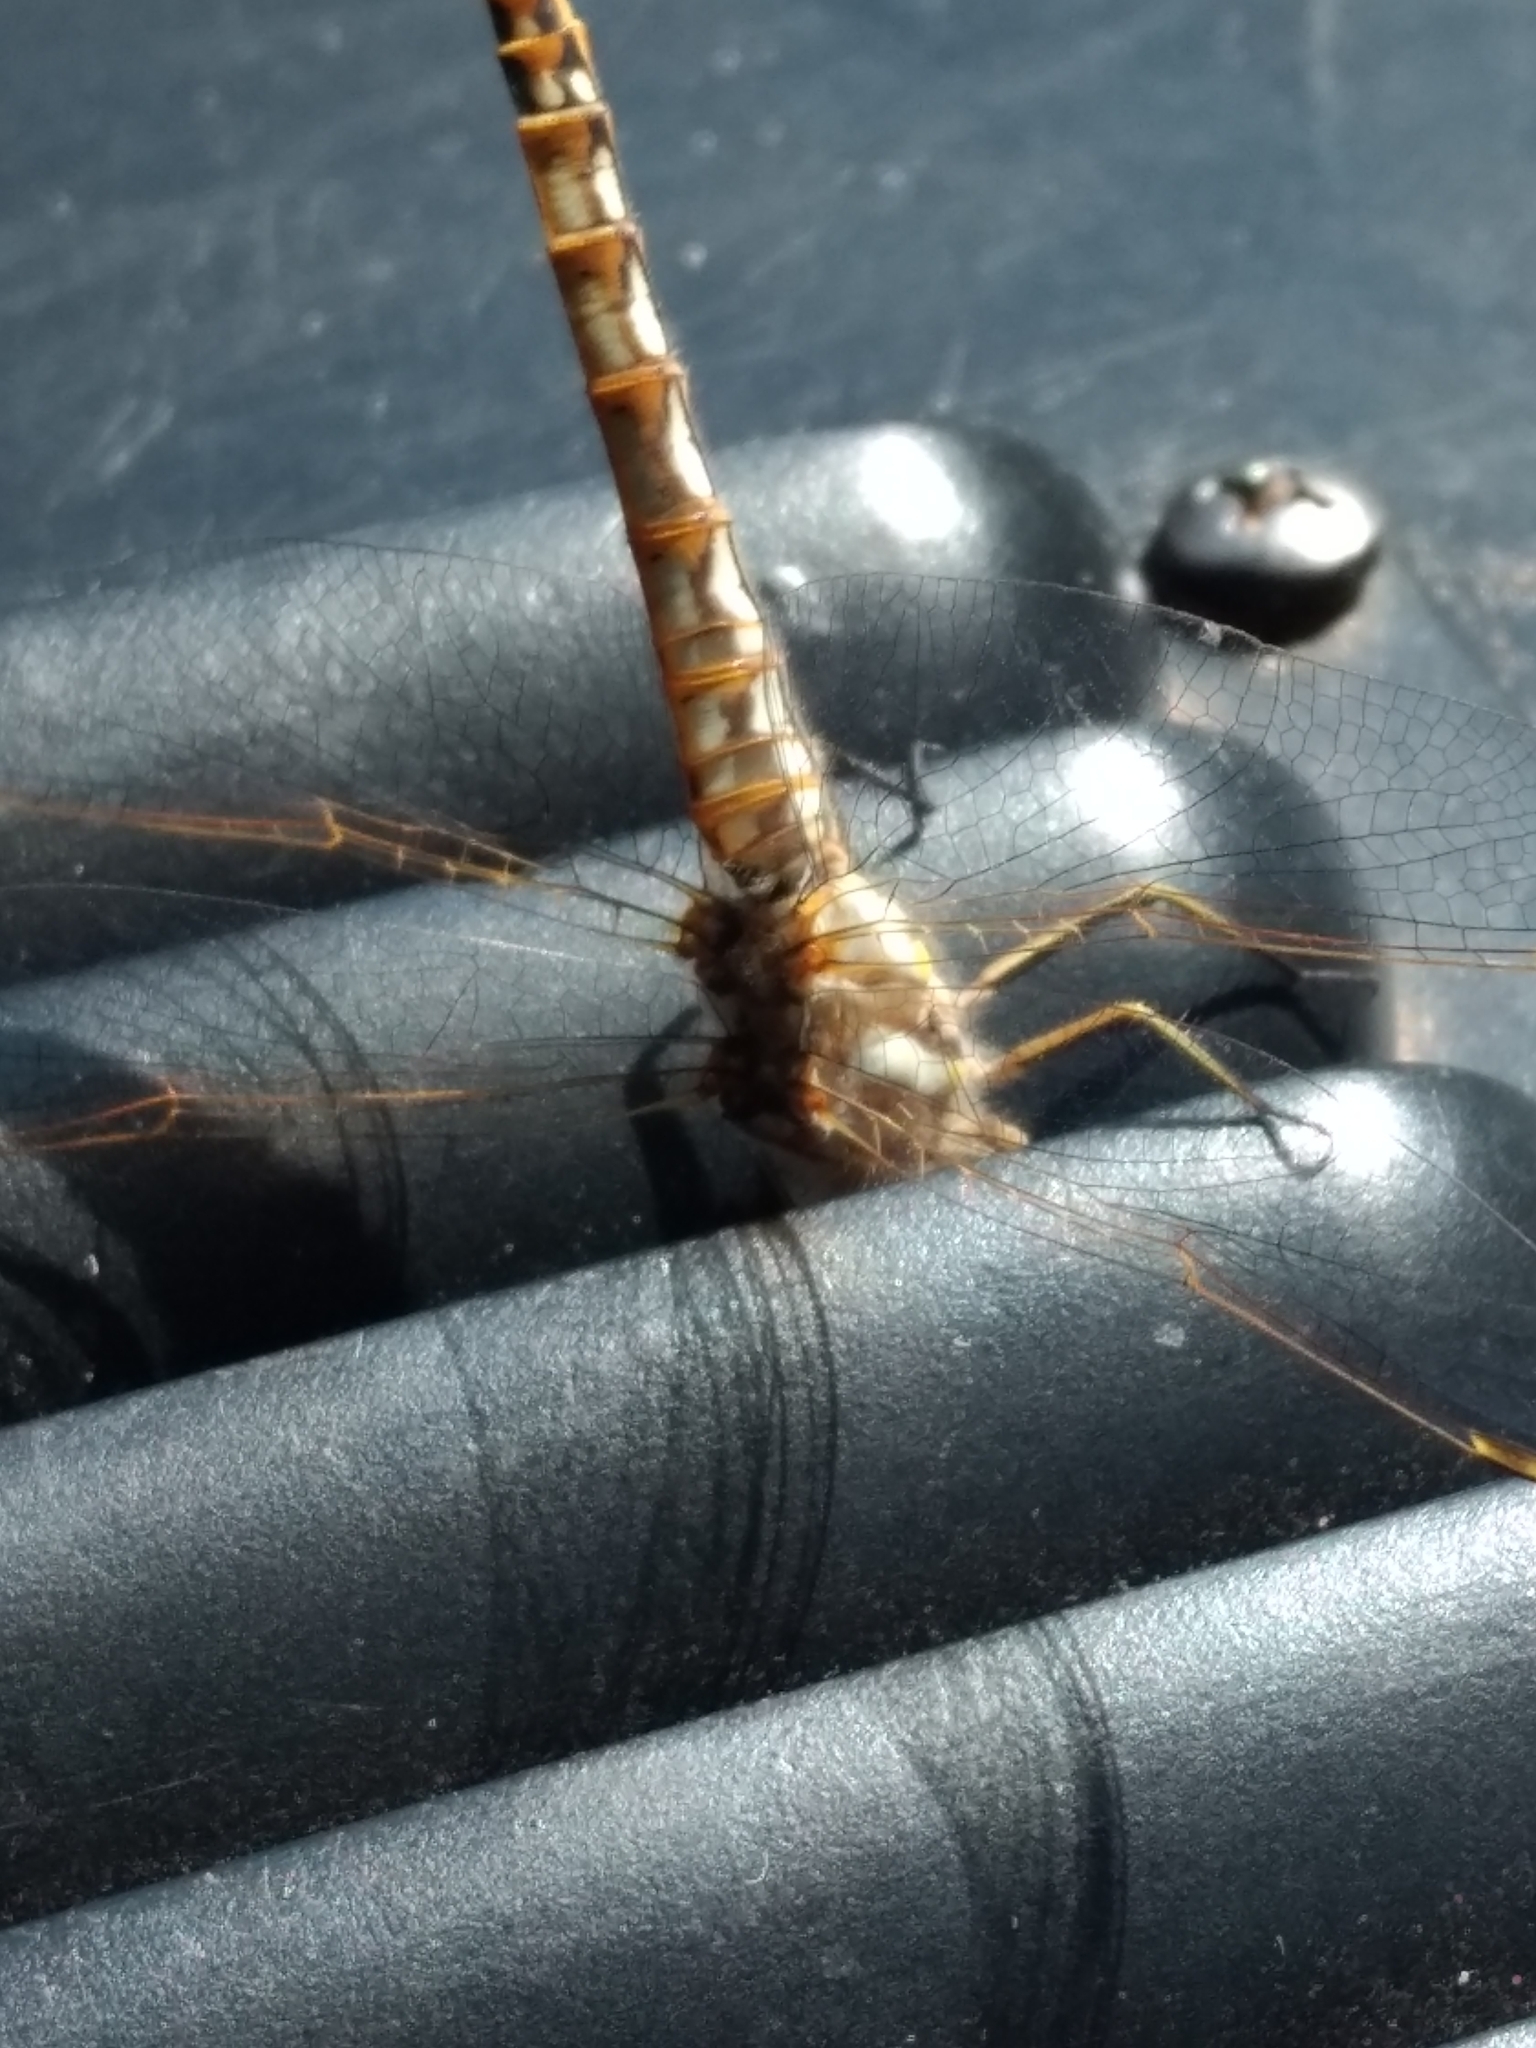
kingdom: Animalia
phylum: Arthropoda
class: Insecta
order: Odonata
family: Libellulidae
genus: Sympetrum
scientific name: Sympetrum corruptum
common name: Variegated meadowhawk
